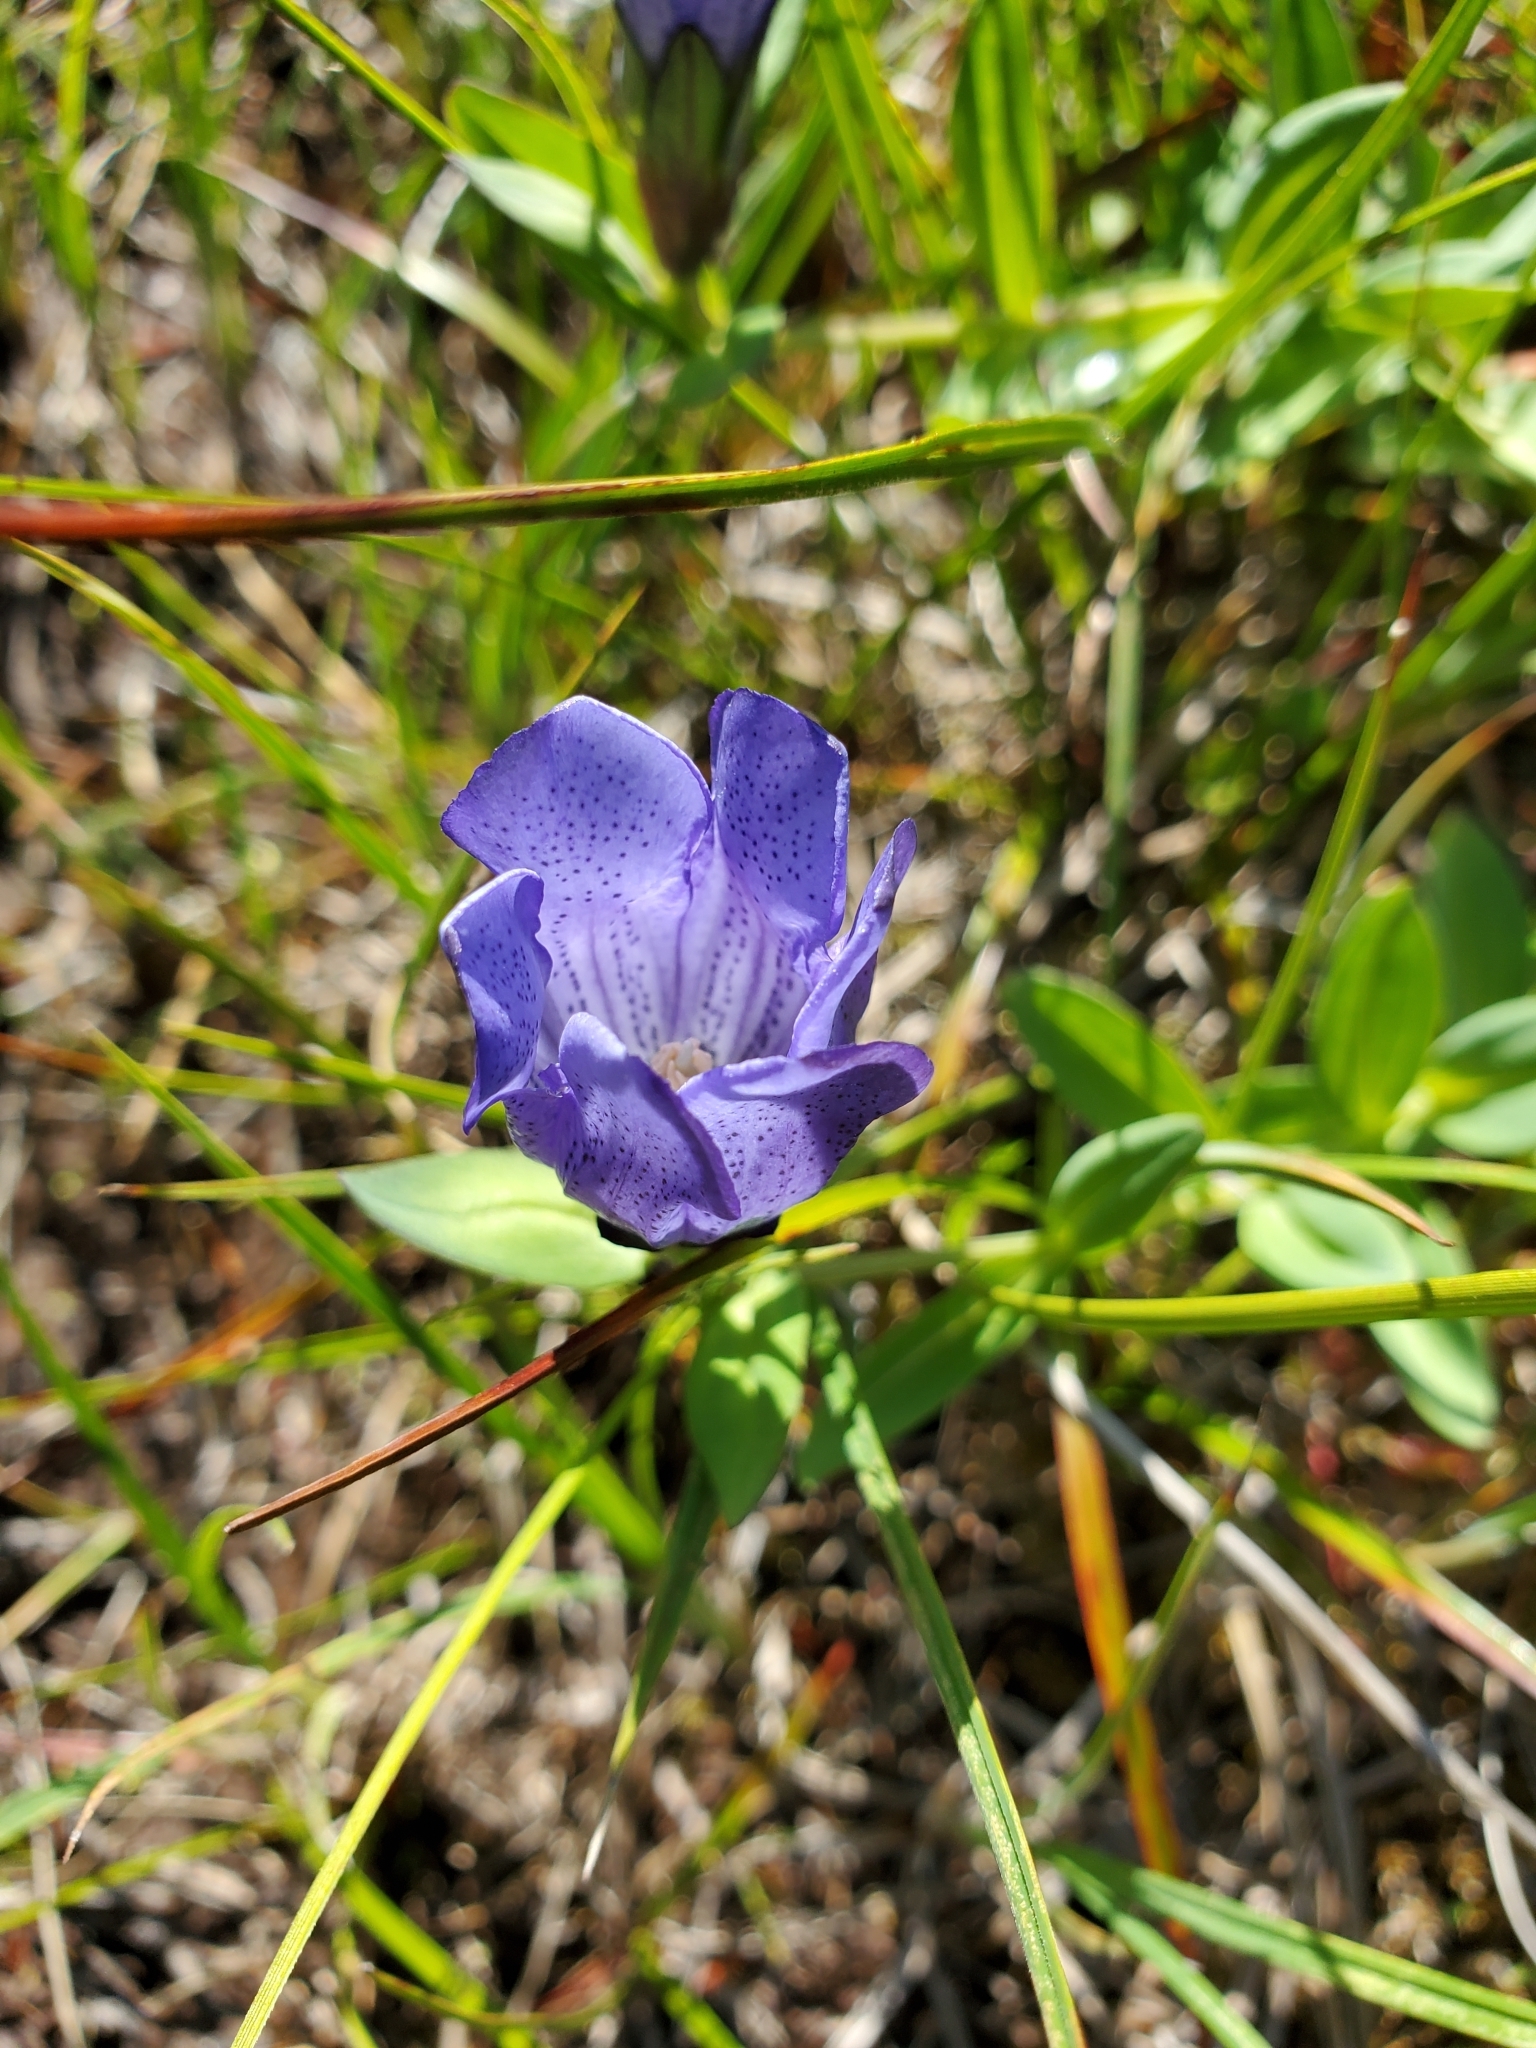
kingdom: Plantae
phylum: Tracheophyta
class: Magnoliopsida
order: Gentianales
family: Gentianaceae
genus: Gentiana
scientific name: Gentiana sceptrum
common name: Pacific gentian
